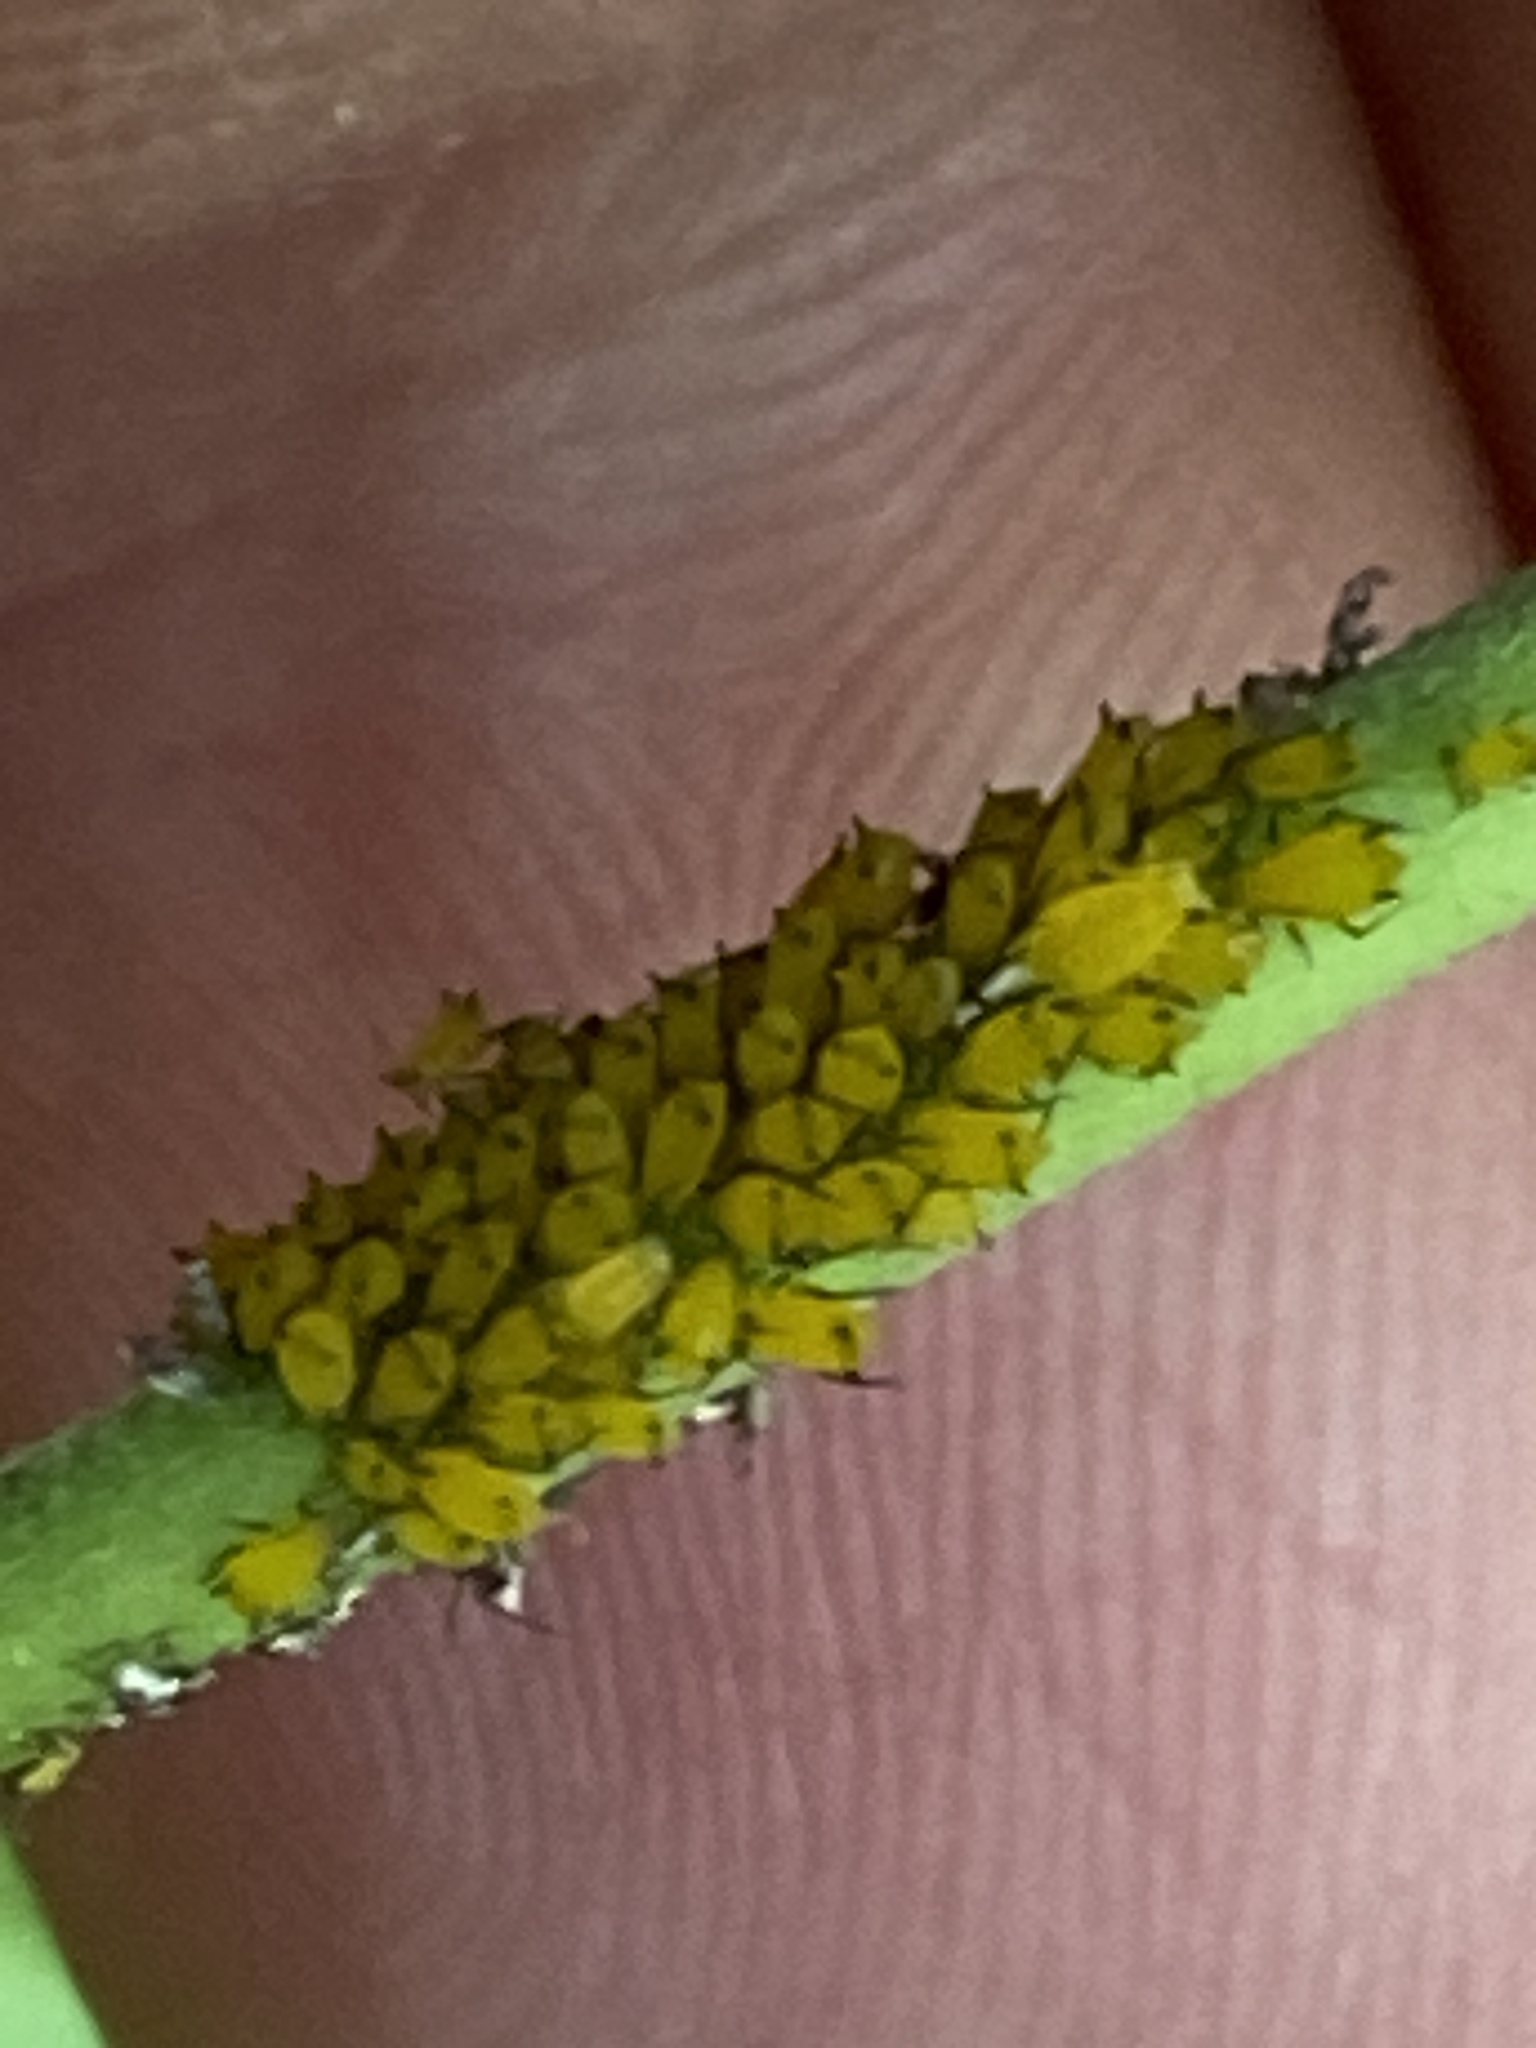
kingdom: Animalia
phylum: Arthropoda
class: Insecta
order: Hemiptera
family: Aphididae
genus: Aphis
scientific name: Aphis nerii
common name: Oleander aphid
